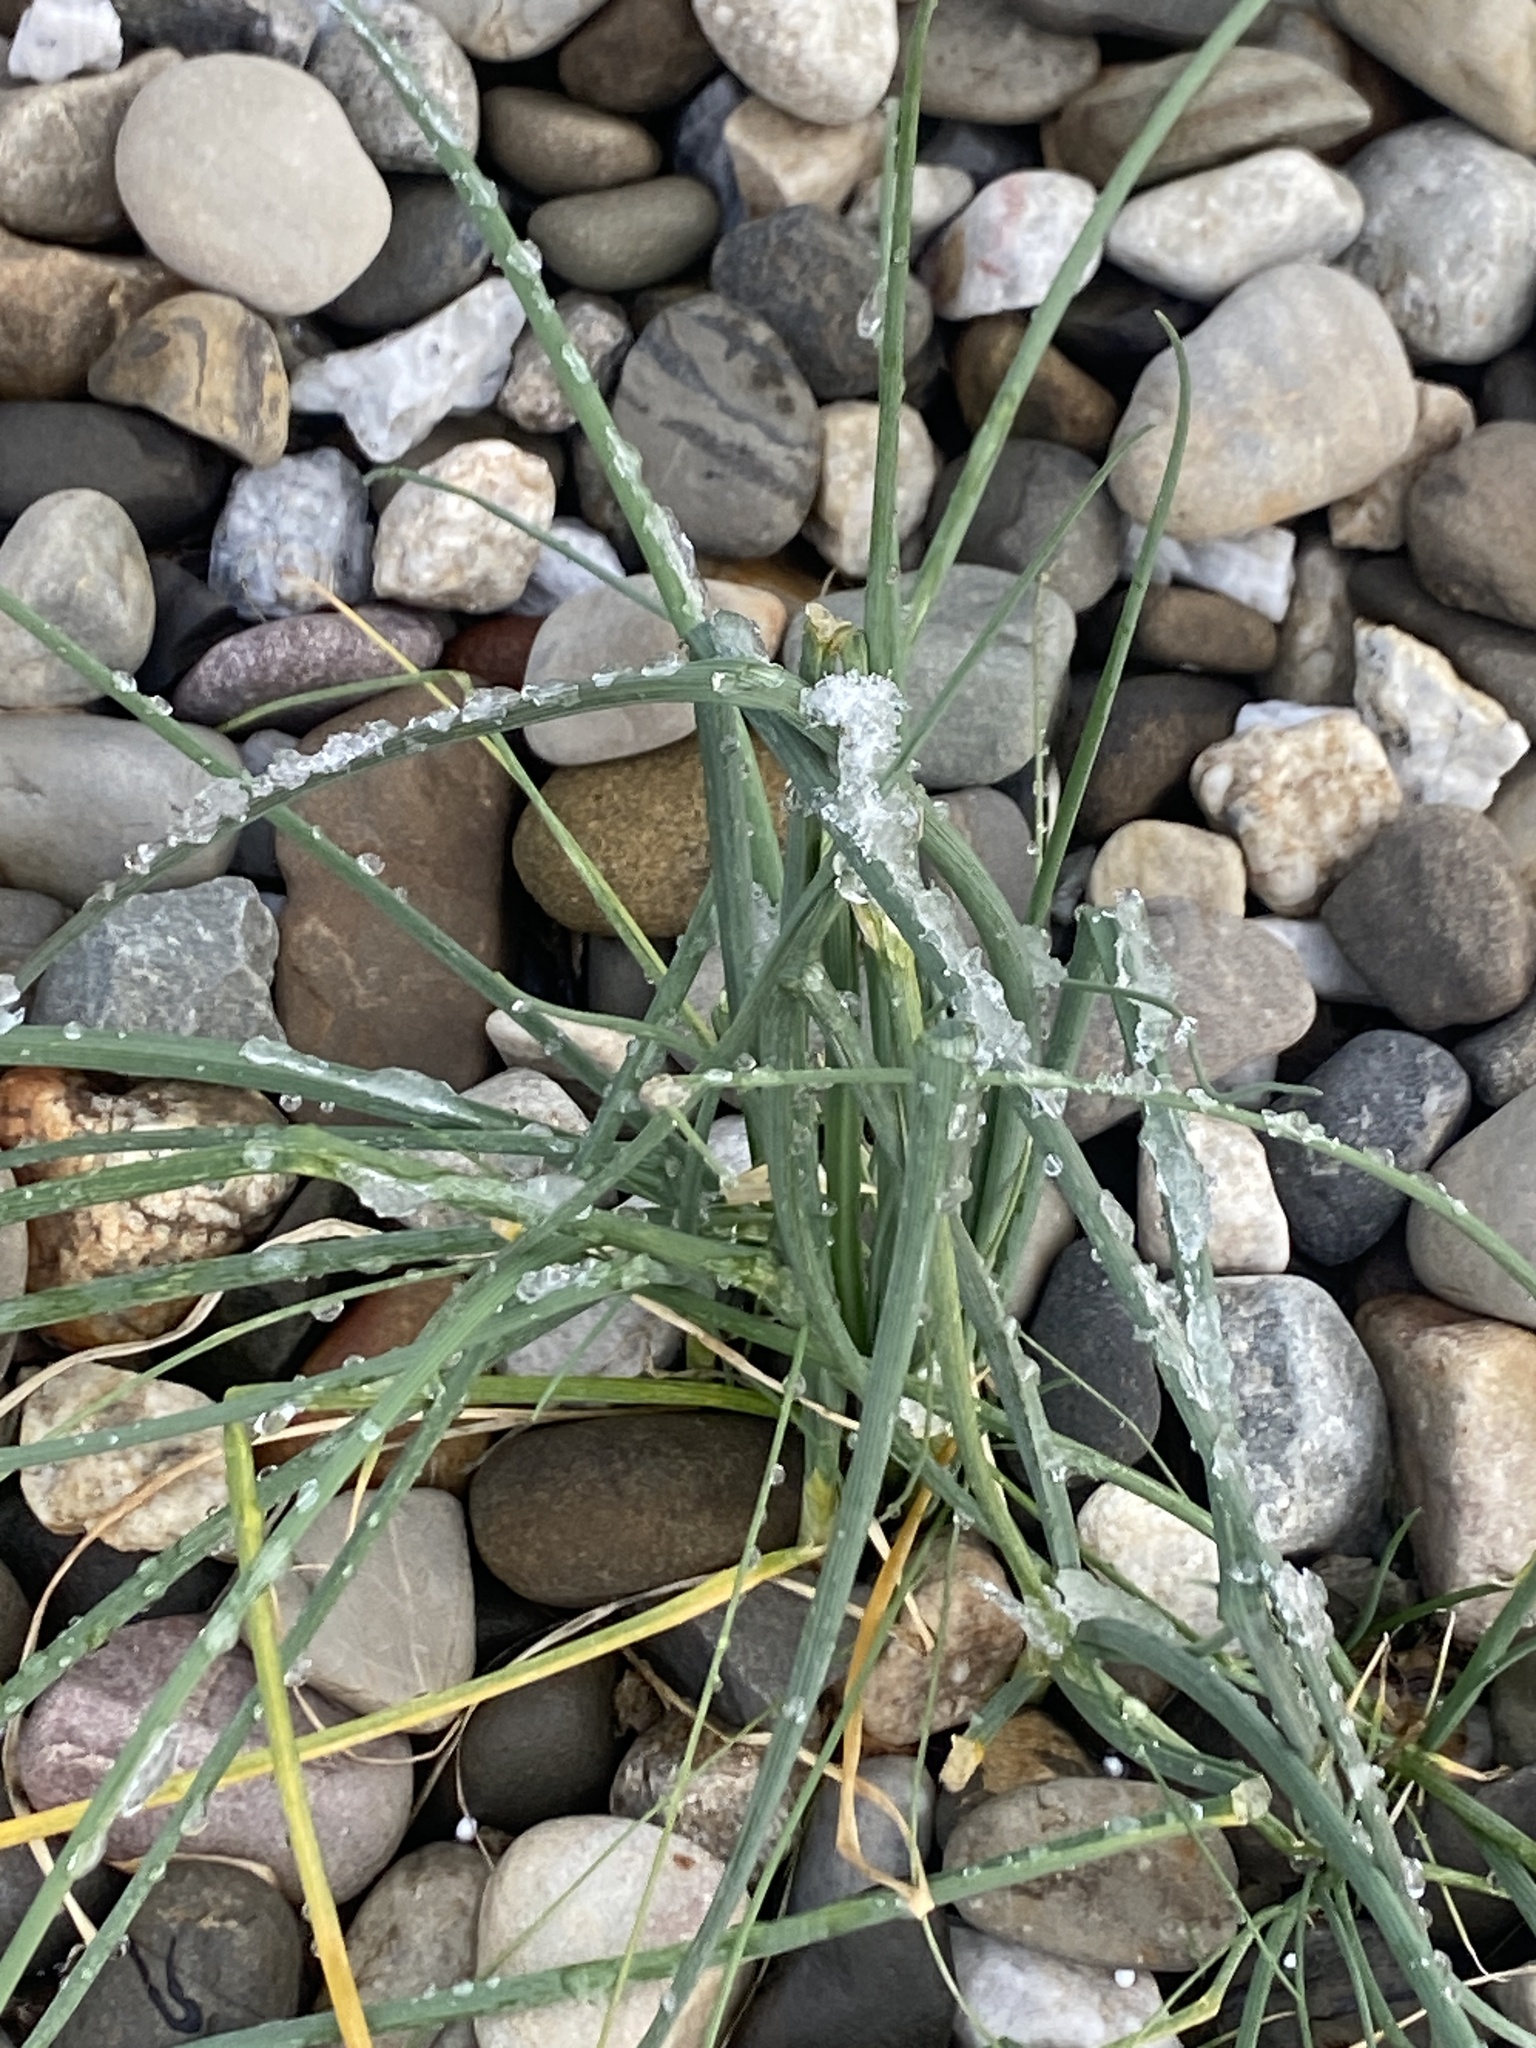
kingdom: Plantae
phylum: Tracheophyta
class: Liliopsida
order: Asparagales
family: Amaryllidaceae
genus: Allium
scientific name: Allium vineale
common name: Crow garlic
